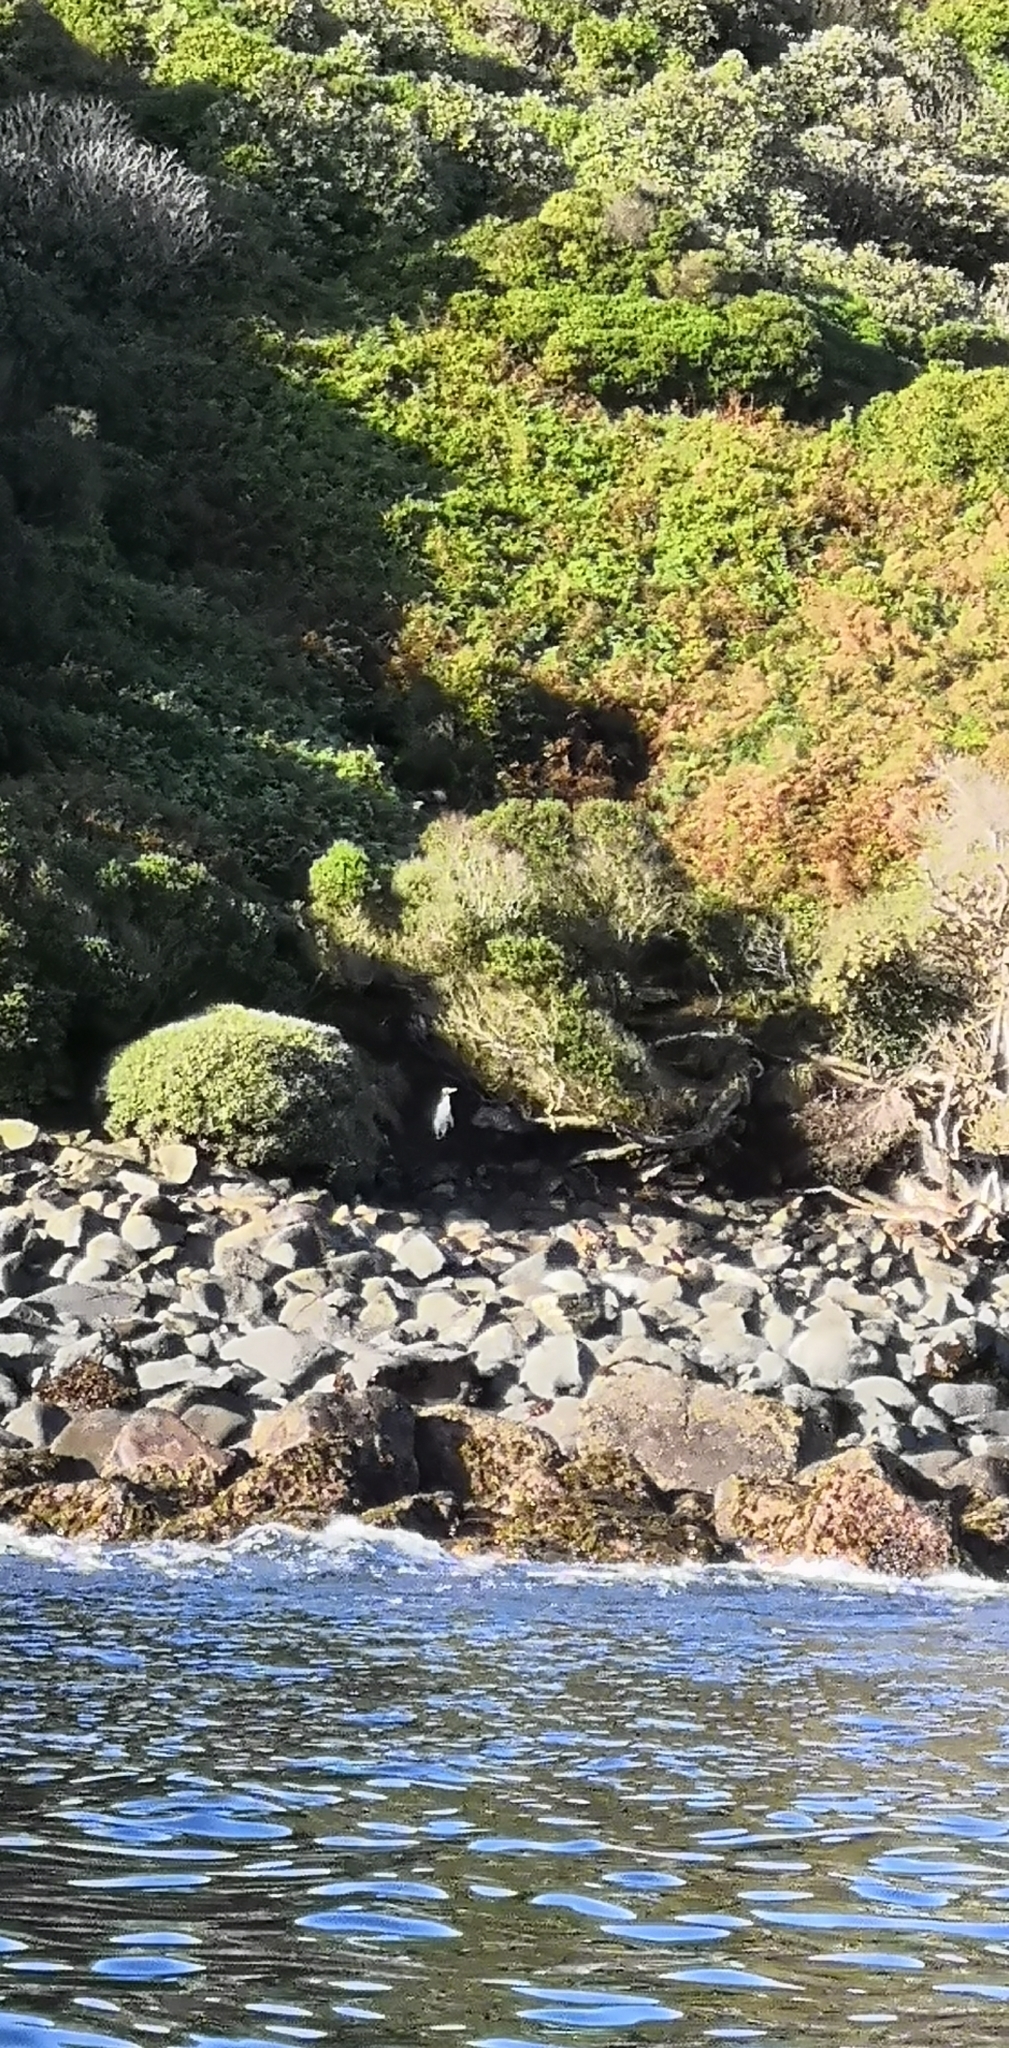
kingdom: Animalia
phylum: Chordata
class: Aves
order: Sphenisciformes
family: Spheniscidae
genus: Megadyptes
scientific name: Megadyptes antipodes
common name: Yellow-eyed penguin
